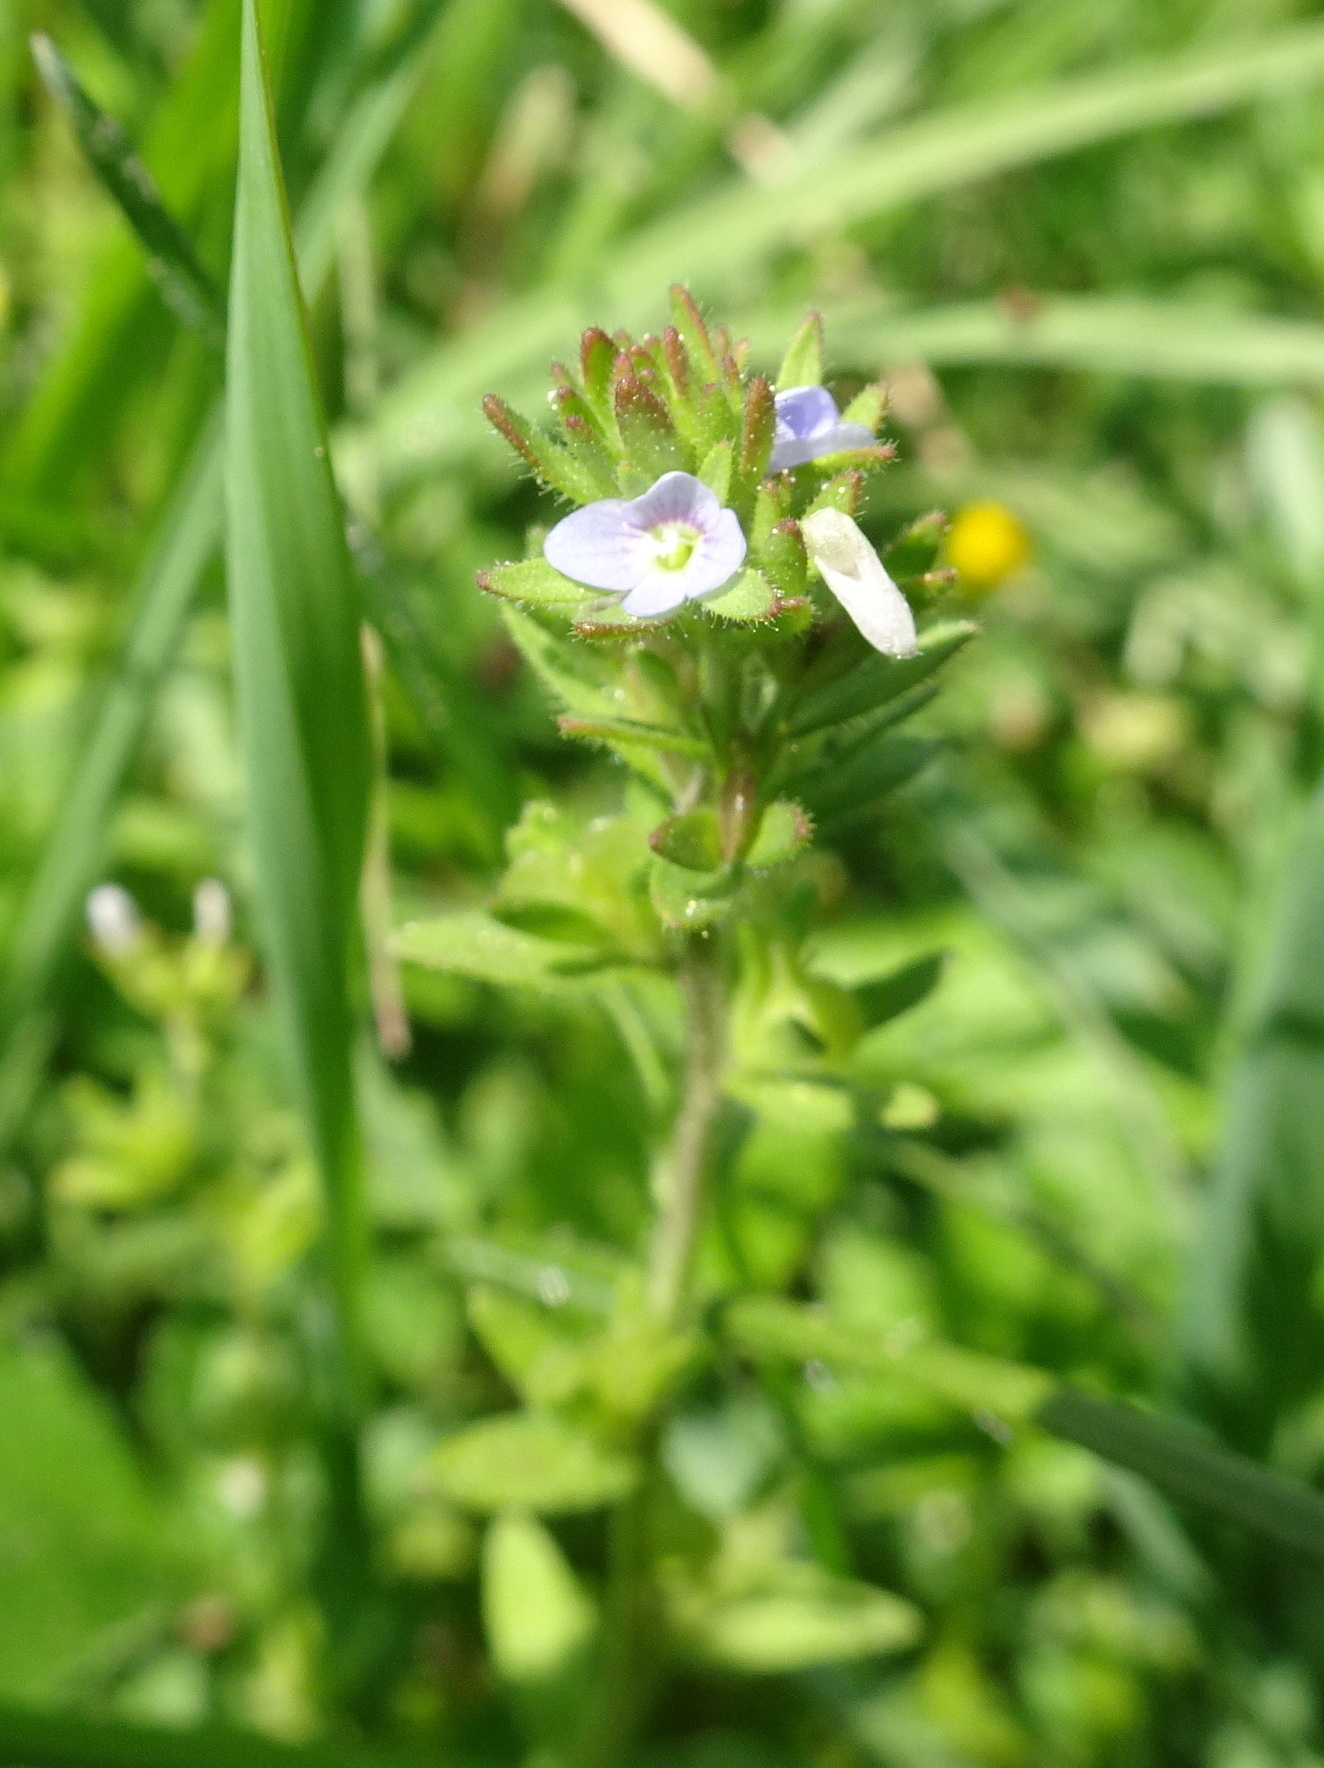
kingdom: Plantae
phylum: Tracheophyta
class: Magnoliopsida
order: Lamiales
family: Plantaginaceae
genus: Veronica
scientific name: Veronica arvensis
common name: Corn speedwell
